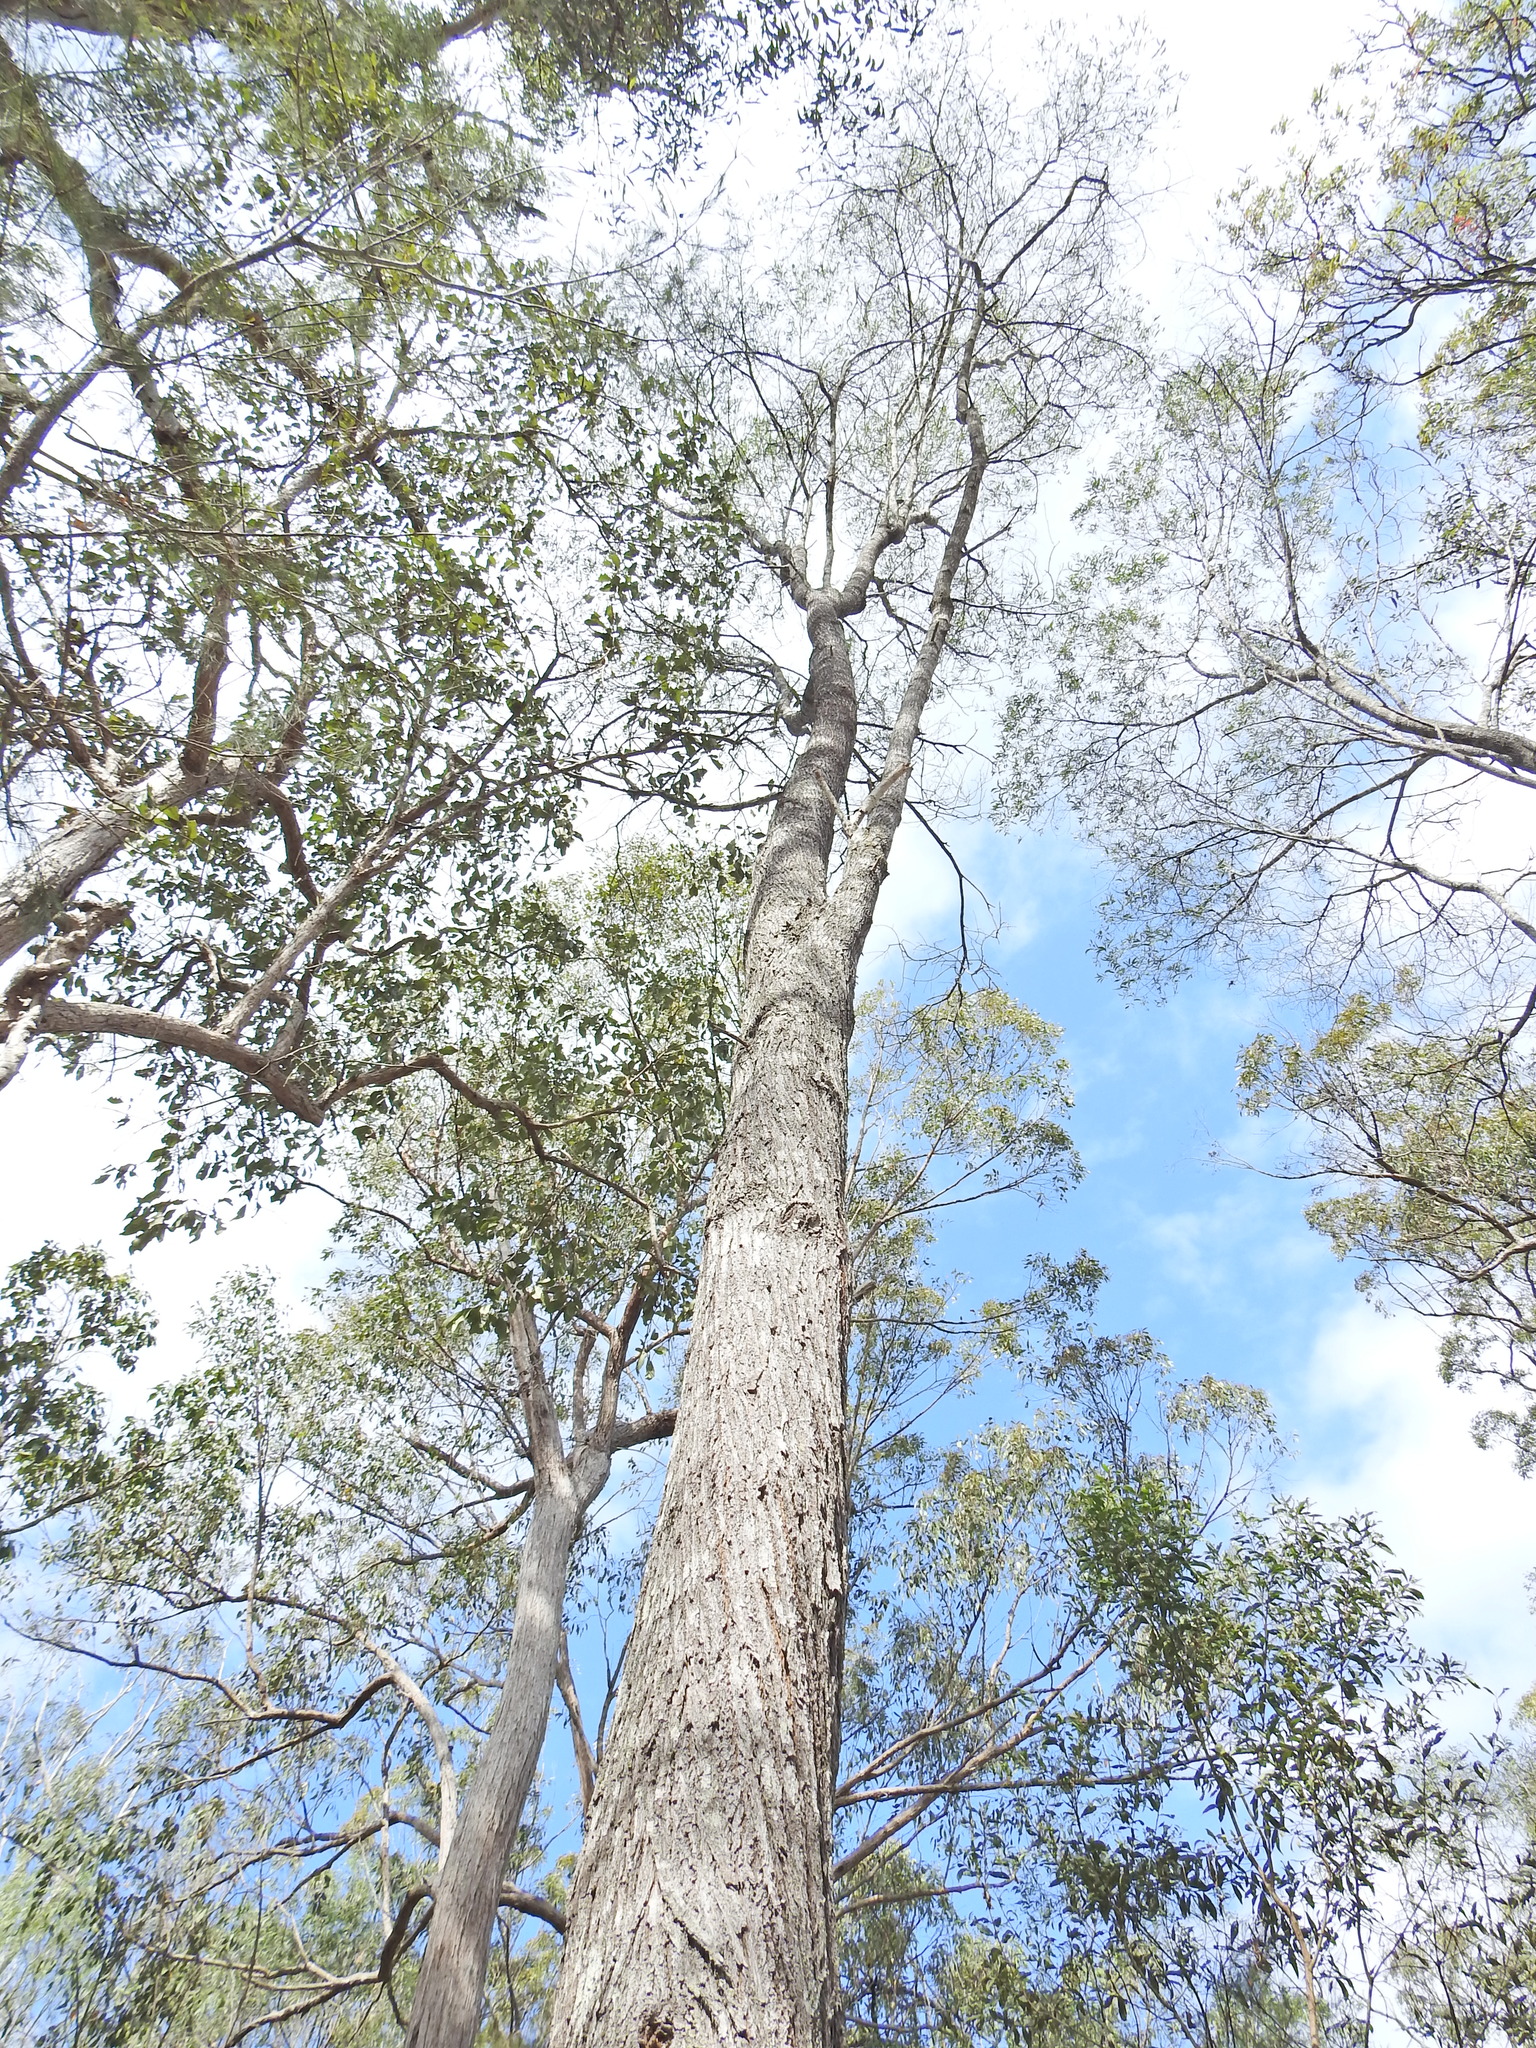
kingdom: Plantae
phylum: Tracheophyta
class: Magnoliopsida
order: Fabales
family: Fabaceae
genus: Acacia
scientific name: Acacia disparrima
